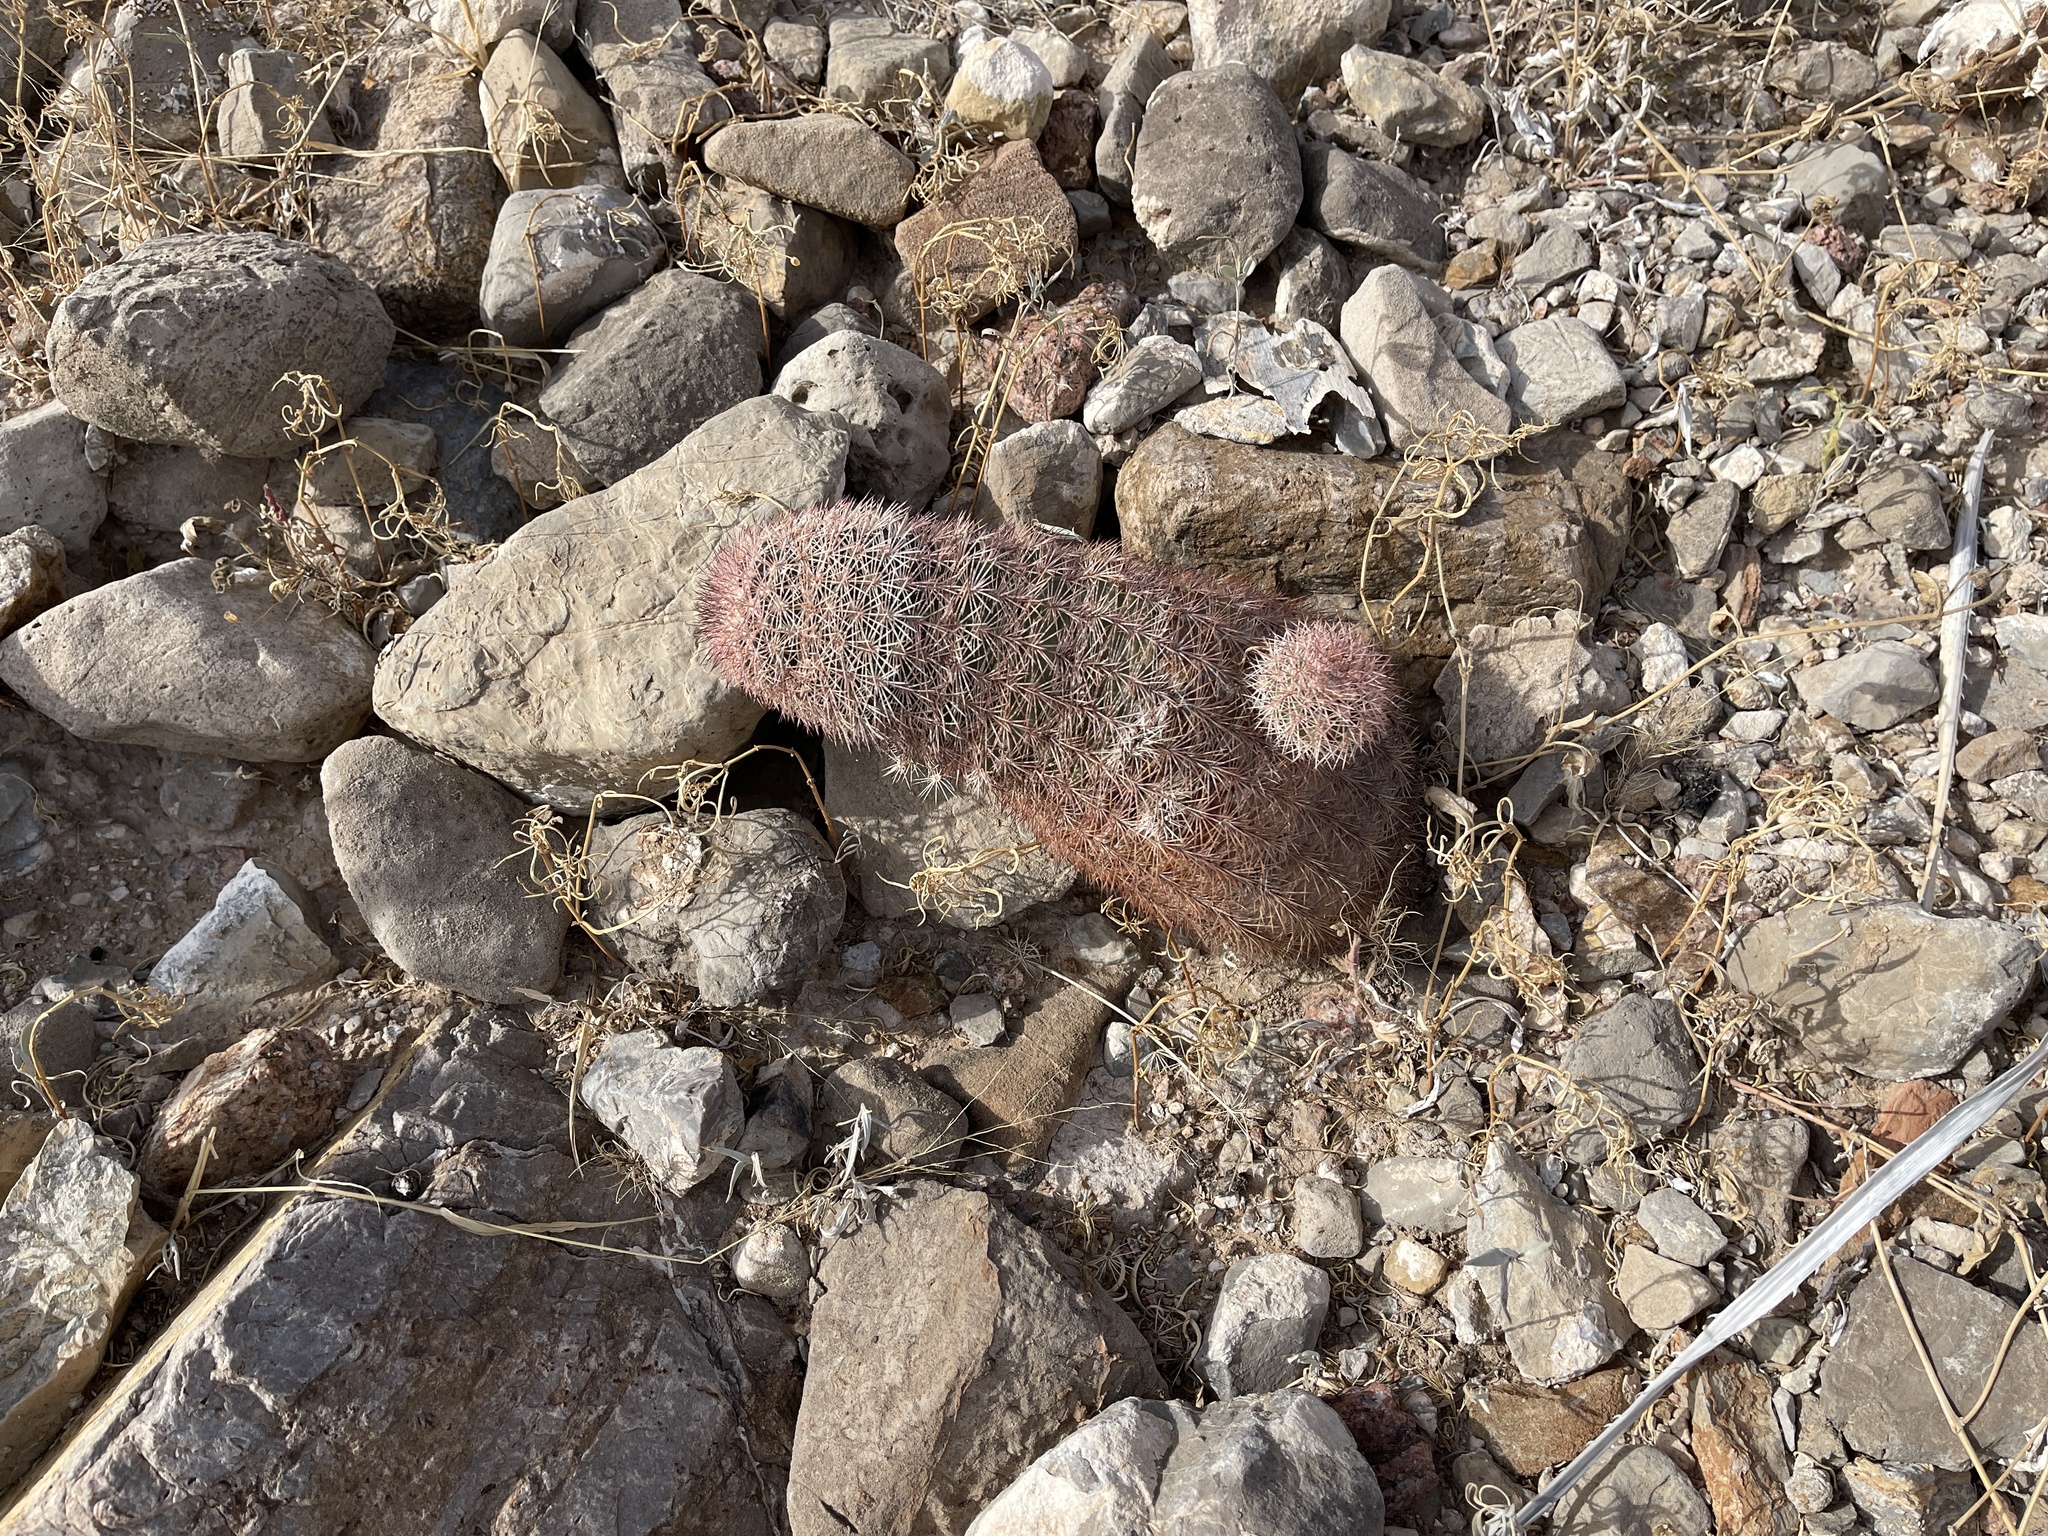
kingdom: Plantae
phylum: Tracheophyta
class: Magnoliopsida
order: Caryophyllales
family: Cactaceae
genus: Echinocereus
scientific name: Echinocereus dasyacanthus
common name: Spiny hedgehog cactus
